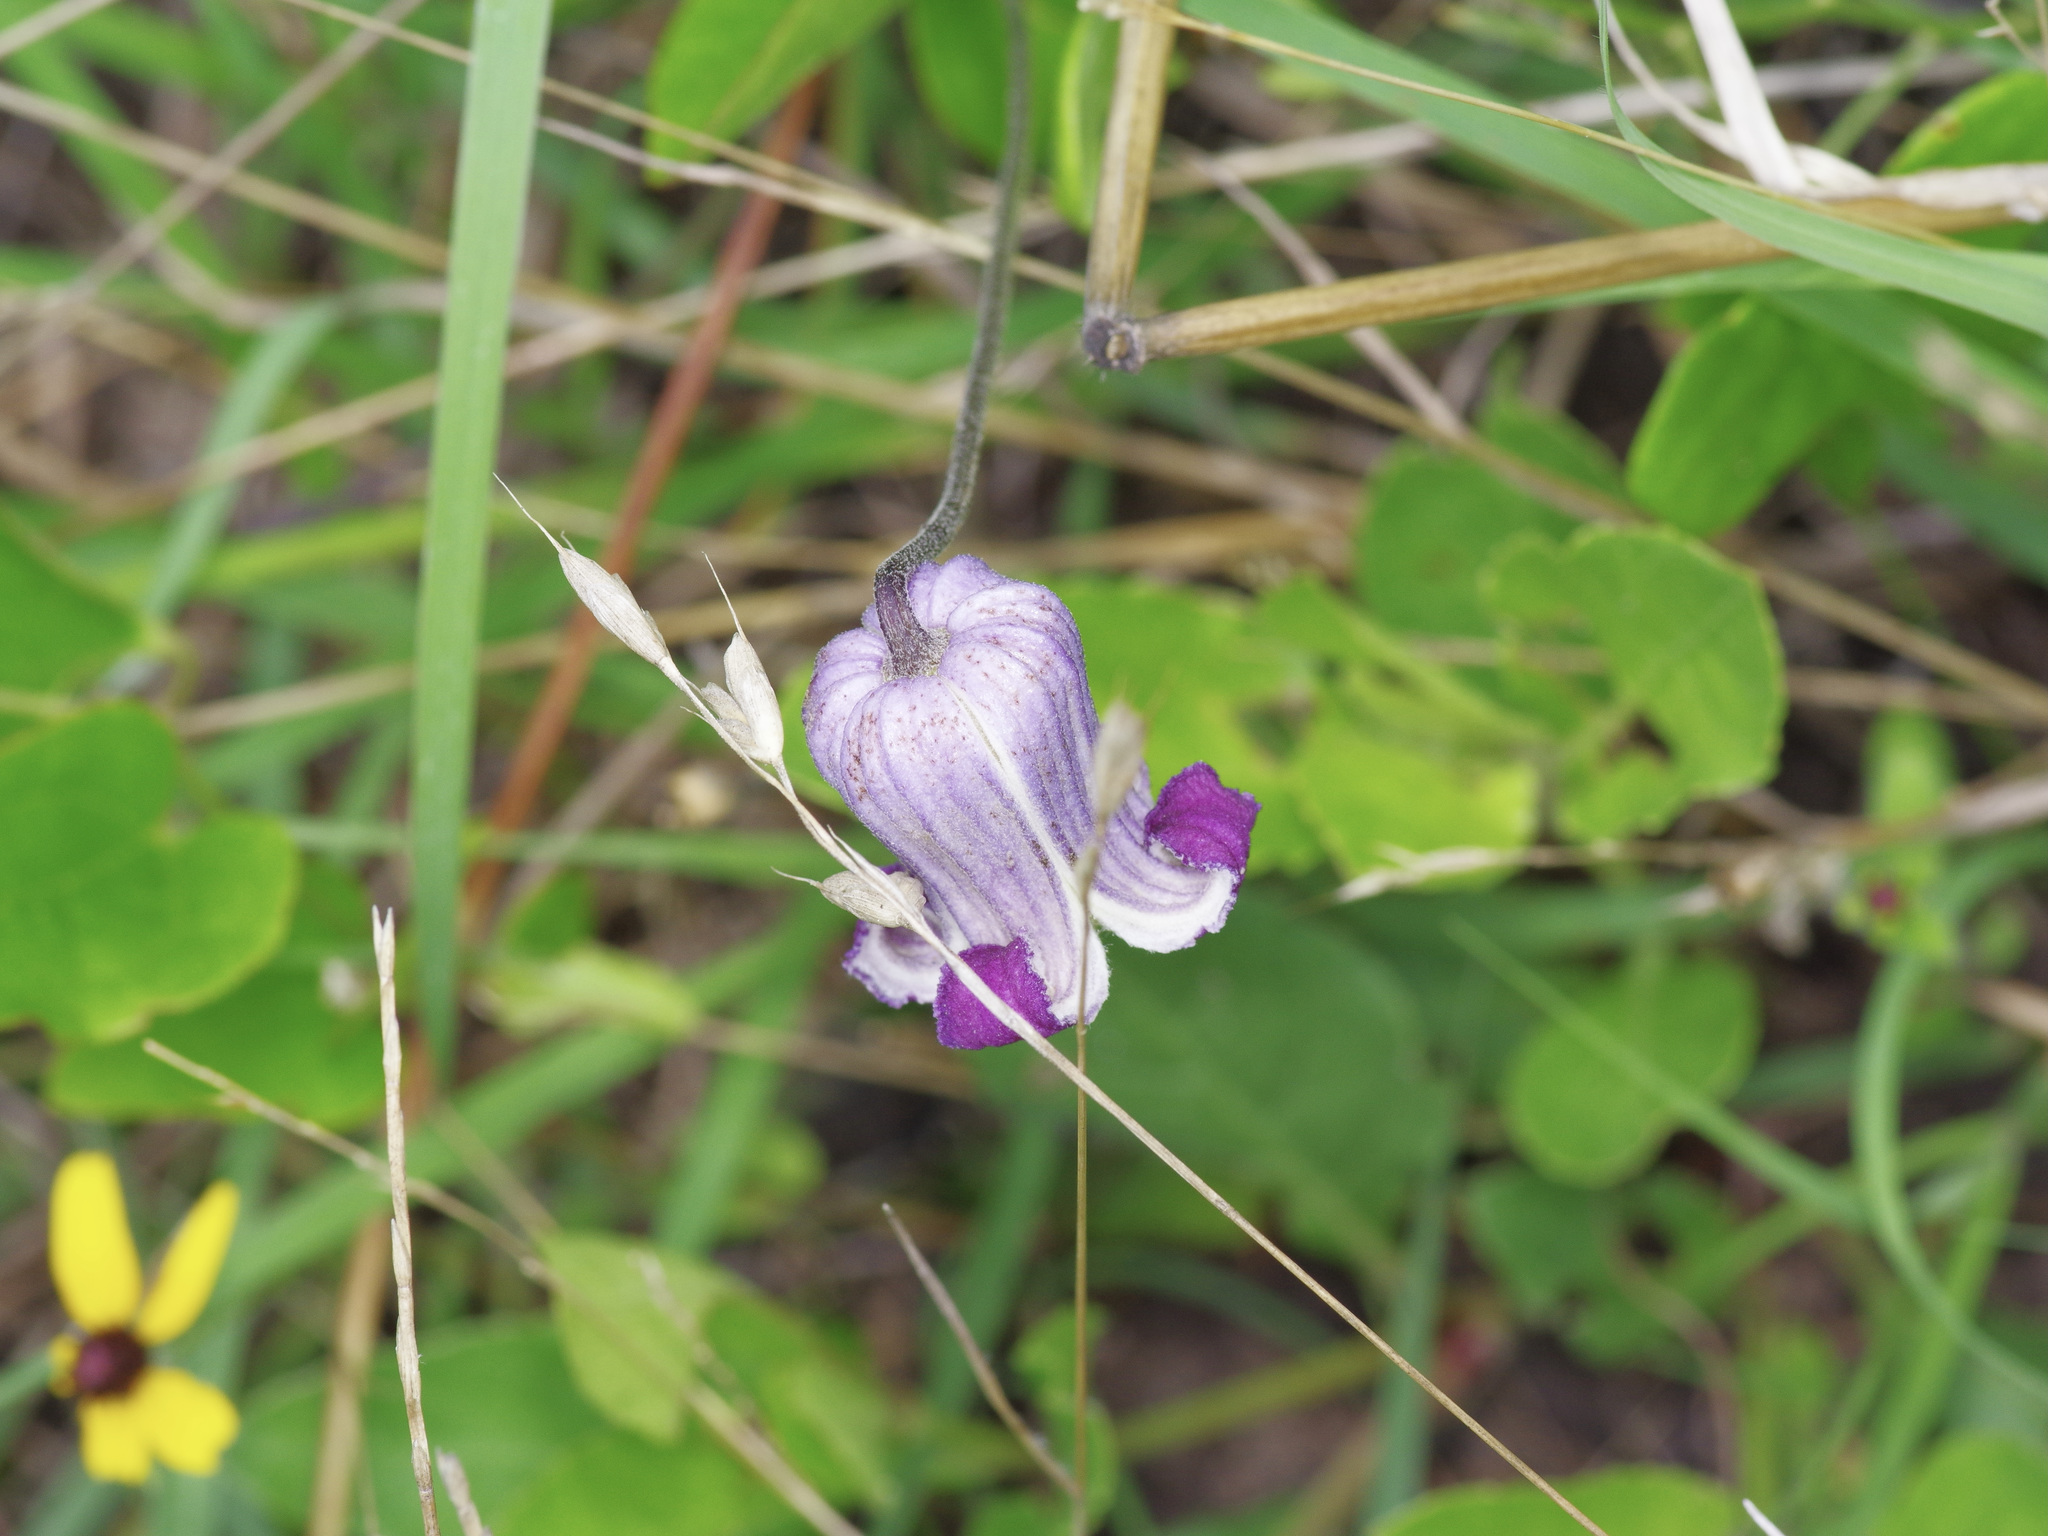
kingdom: Plantae
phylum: Tracheophyta
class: Magnoliopsida
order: Ranunculales
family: Ranunculaceae
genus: Clematis
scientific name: Clematis pitcheri
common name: Bellflower clematis
